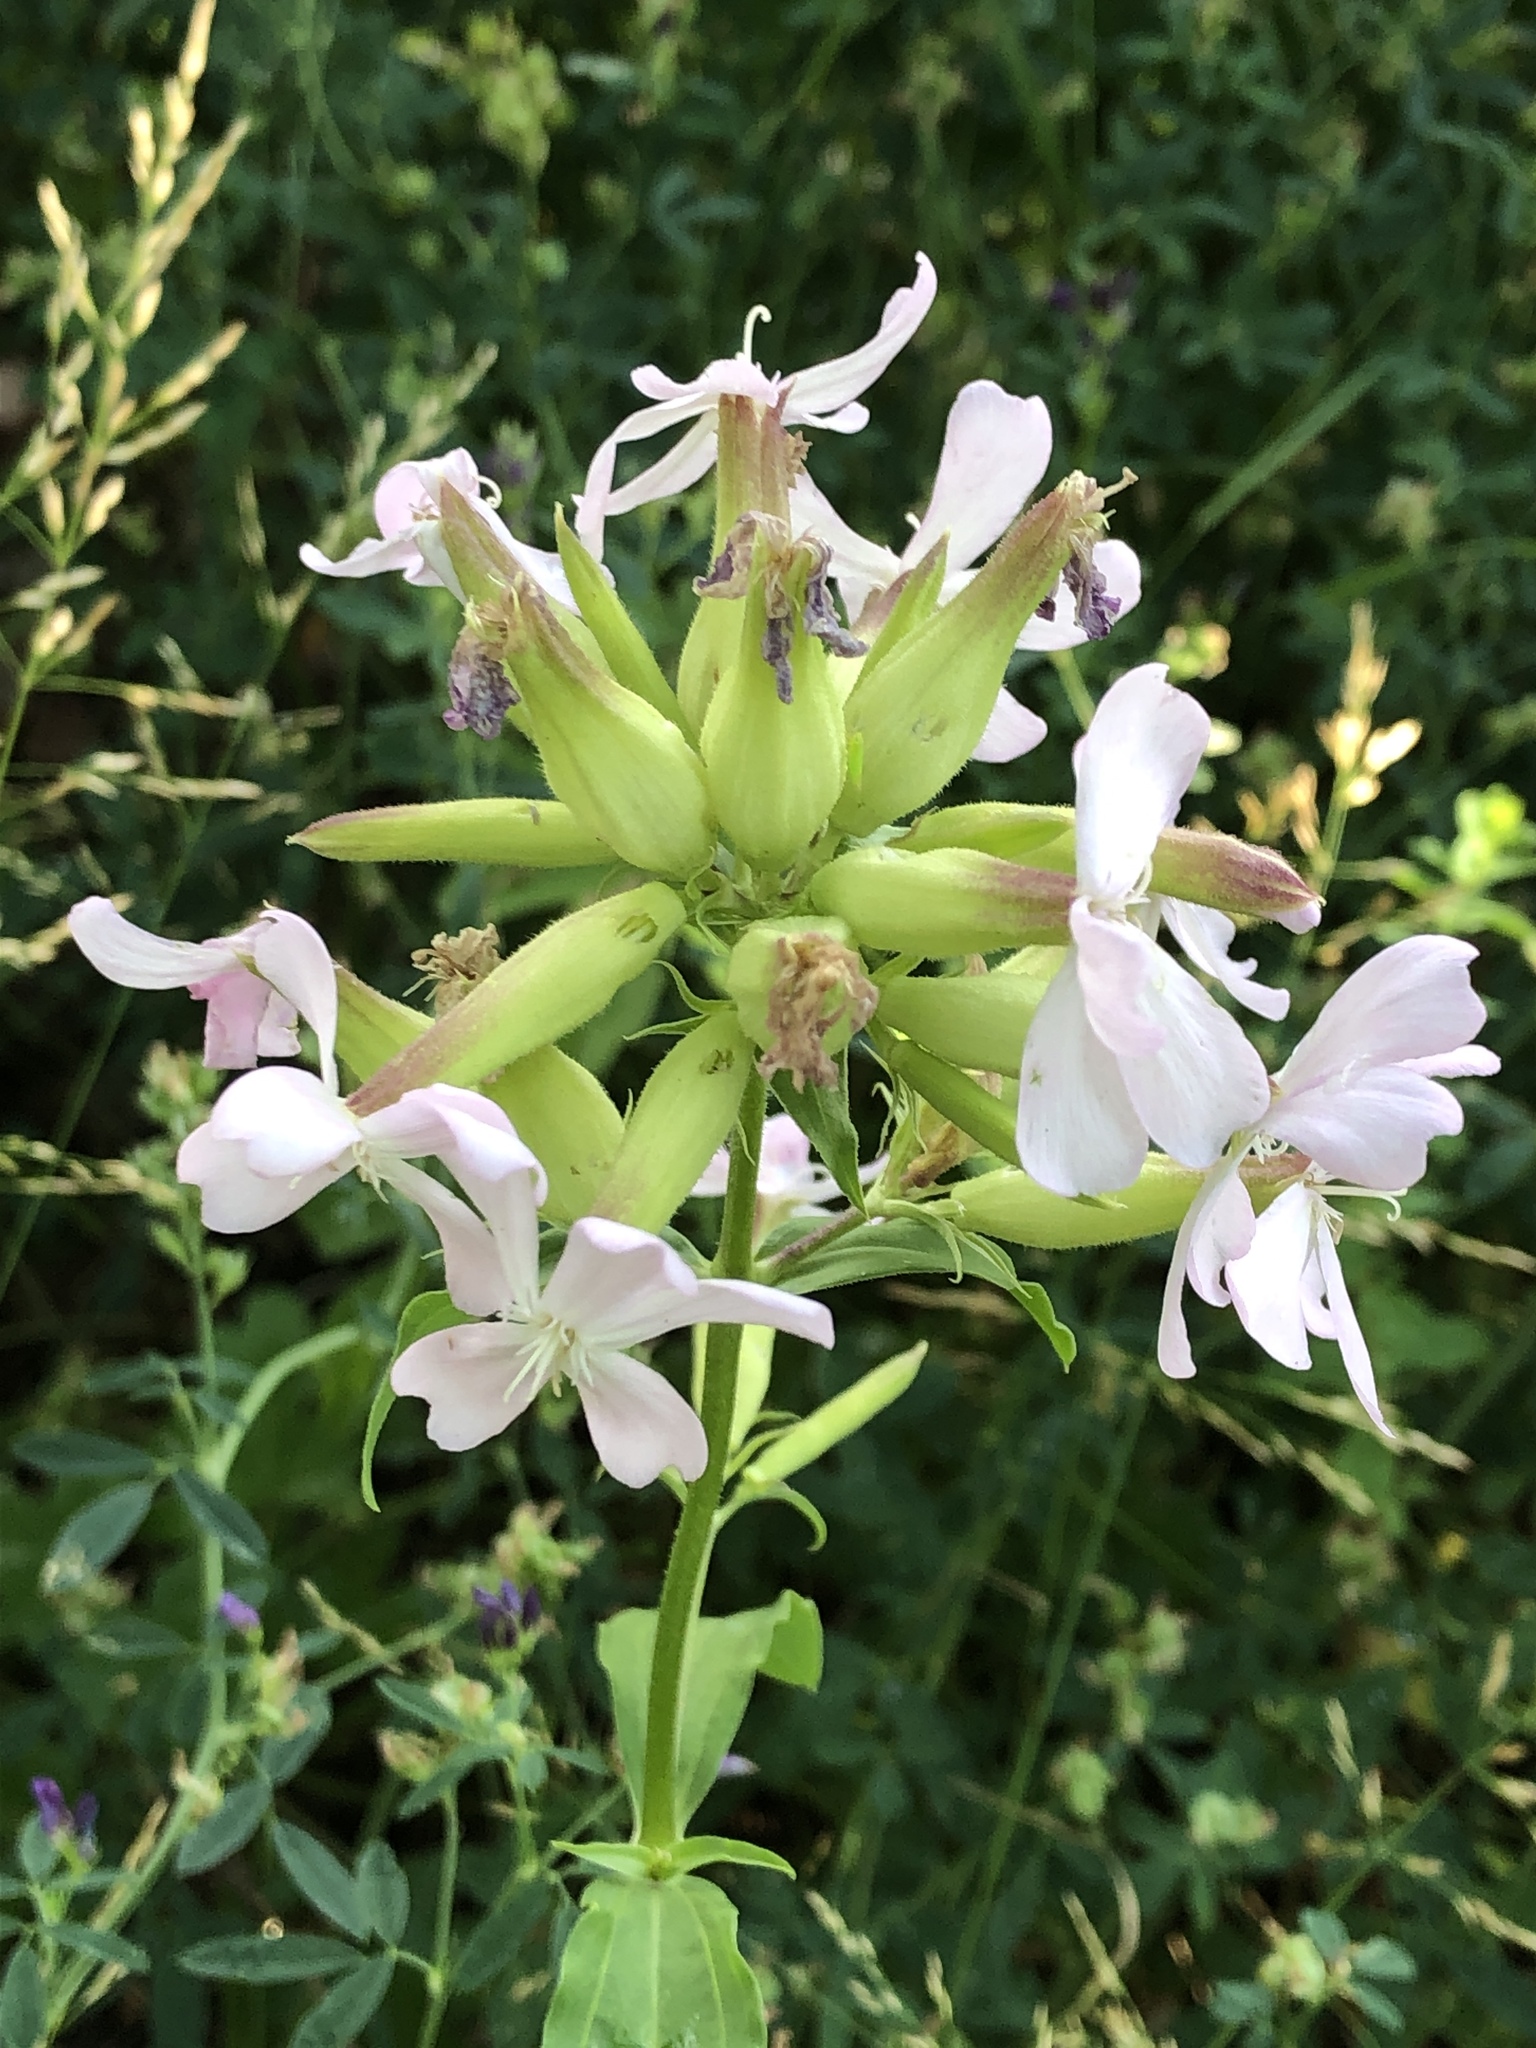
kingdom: Plantae
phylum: Tracheophyta
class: Magnoliopsida
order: Caryophyllales
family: Caryophyllaceae
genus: Saponaria
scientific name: Saponaria officinalis
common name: Soapwort
